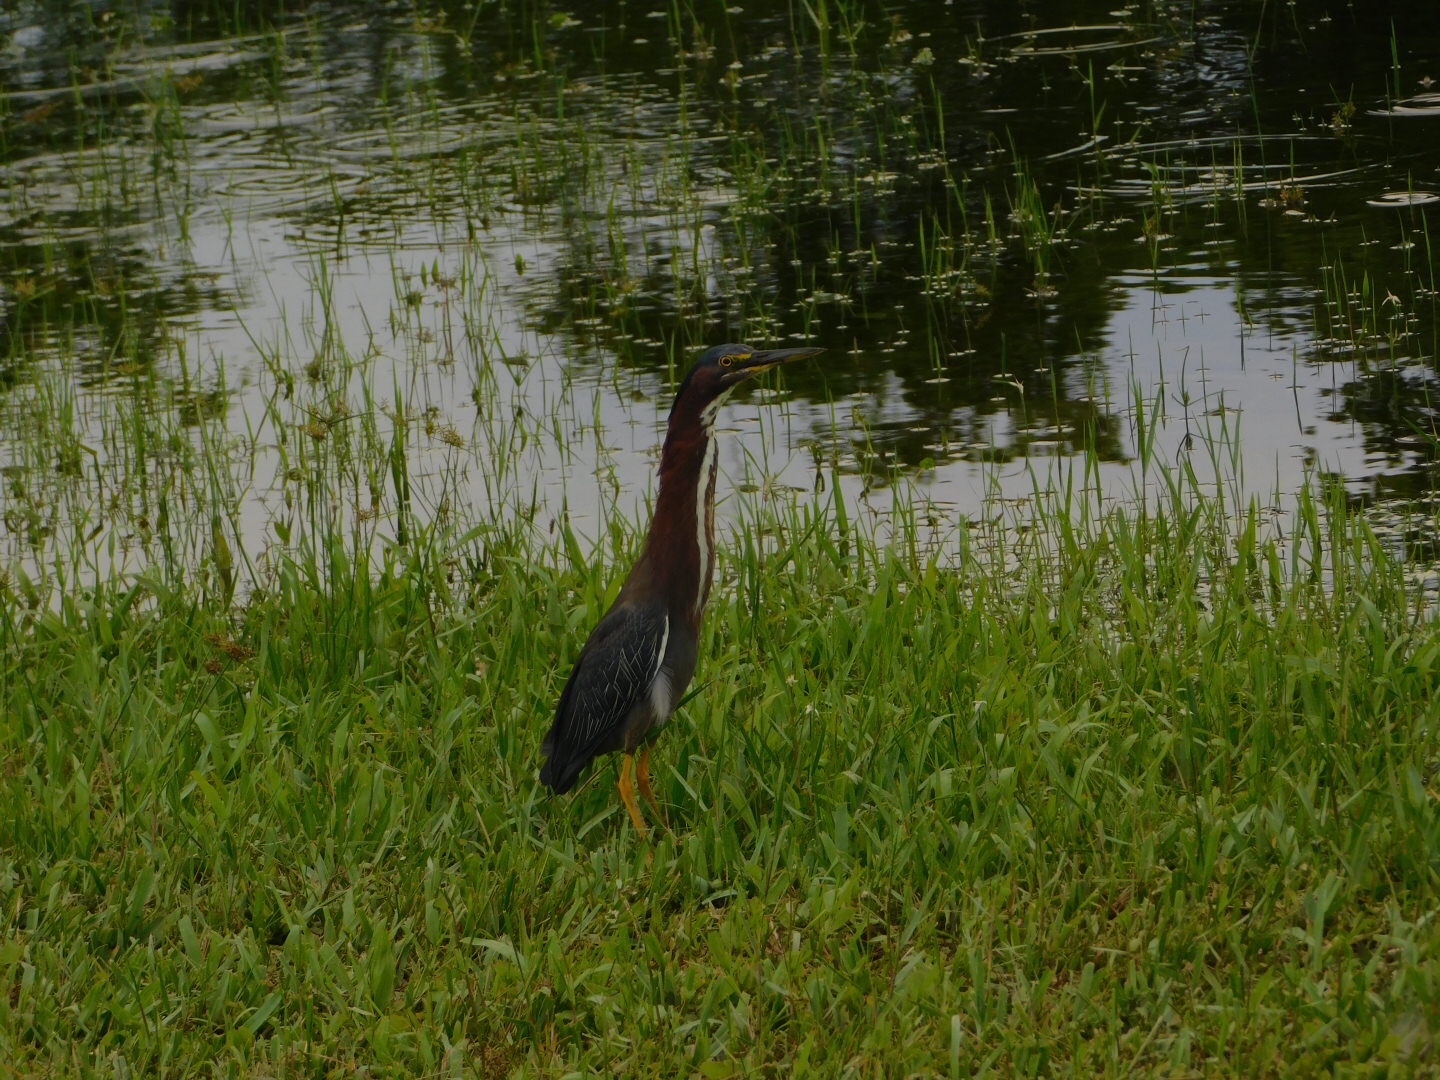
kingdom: Animalia
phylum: Chordata
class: Aves
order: Pelecaniformes
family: Ardeidae
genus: Butorides
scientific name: Butorides virescens
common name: Green heron
